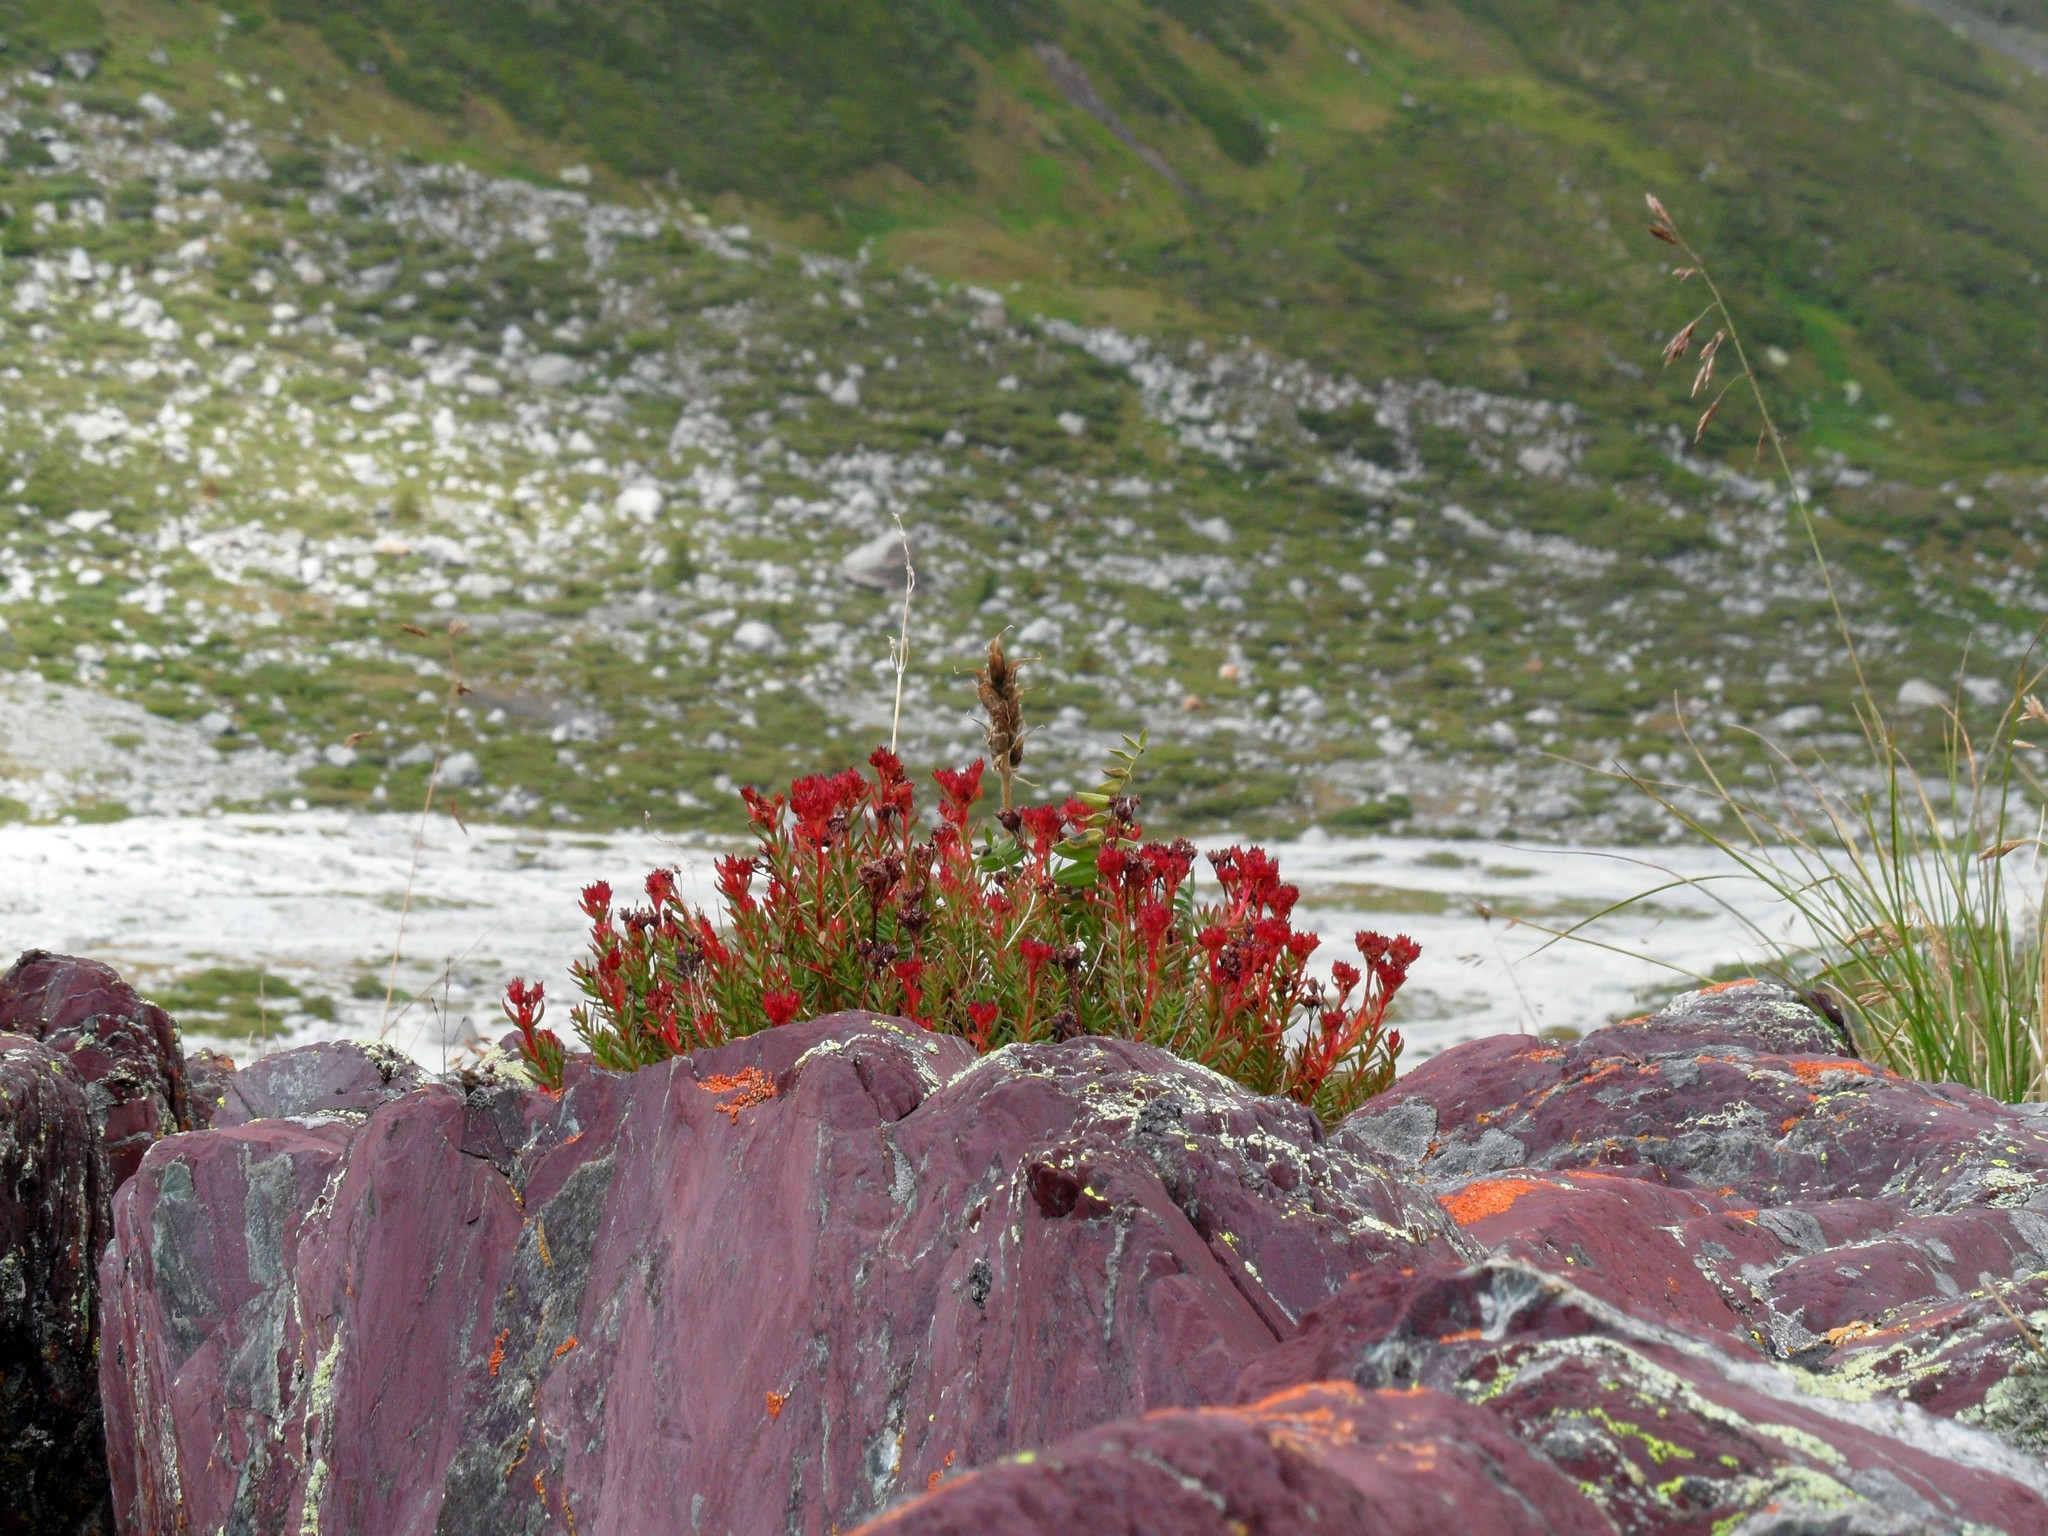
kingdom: Plantae
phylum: Tracheophyta
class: Magnoliopsida
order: Saxifragales
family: Crassulaceae
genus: Rhodiola
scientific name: Rhodiola quadrifida
